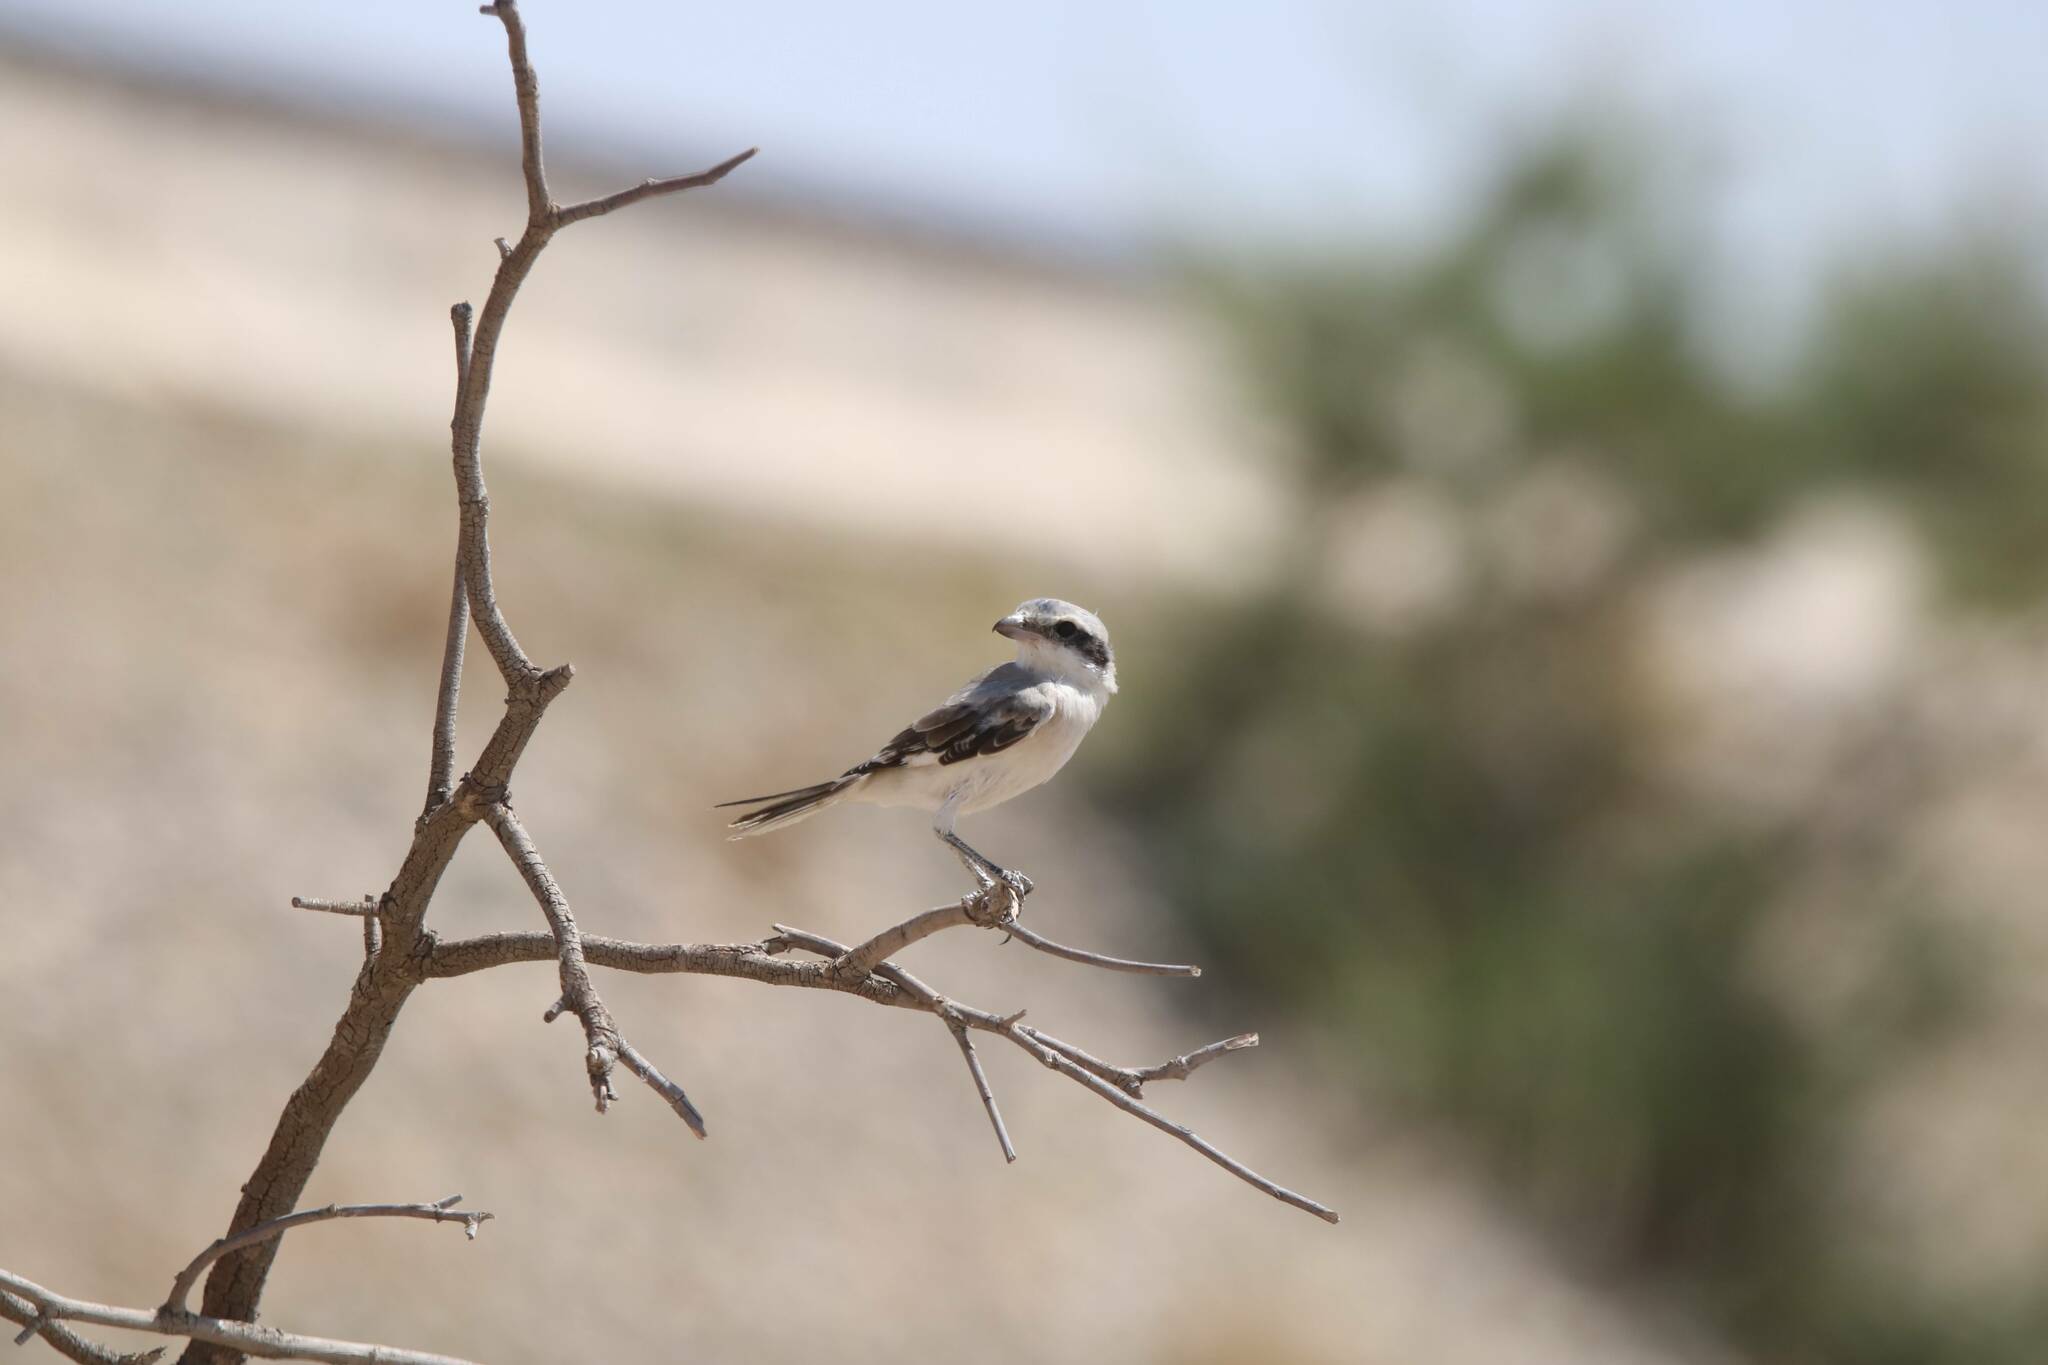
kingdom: Animalia
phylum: Chordata
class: Aves
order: Passeriformes
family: Laniidae
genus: Lanius
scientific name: Lanius excubitor
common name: Great grey shrike
